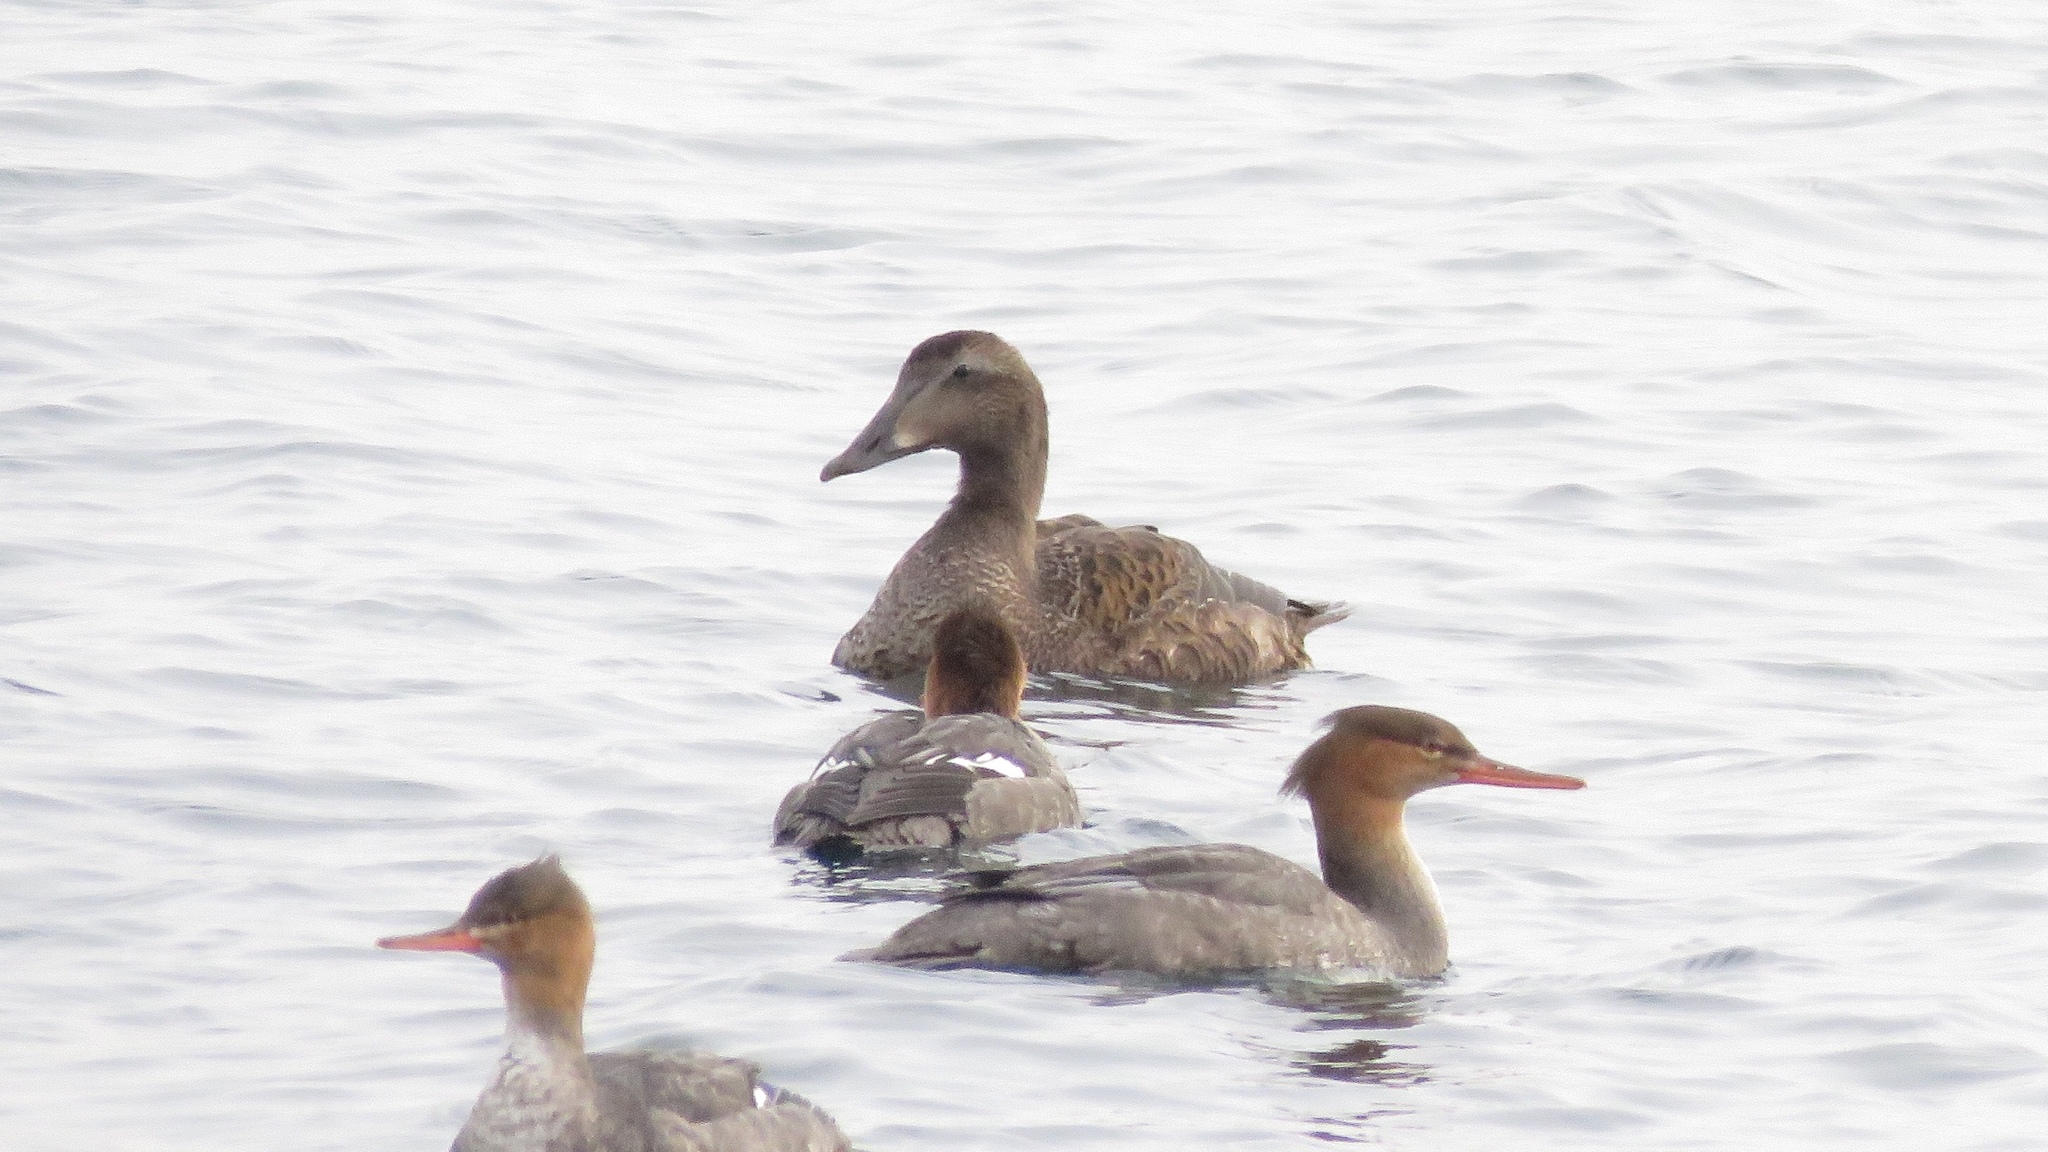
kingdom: Animalia
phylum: Chordata
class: Aves
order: Anseriformes
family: Anatidae
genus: Somateria
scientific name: Somateria mollissima
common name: Common eider
